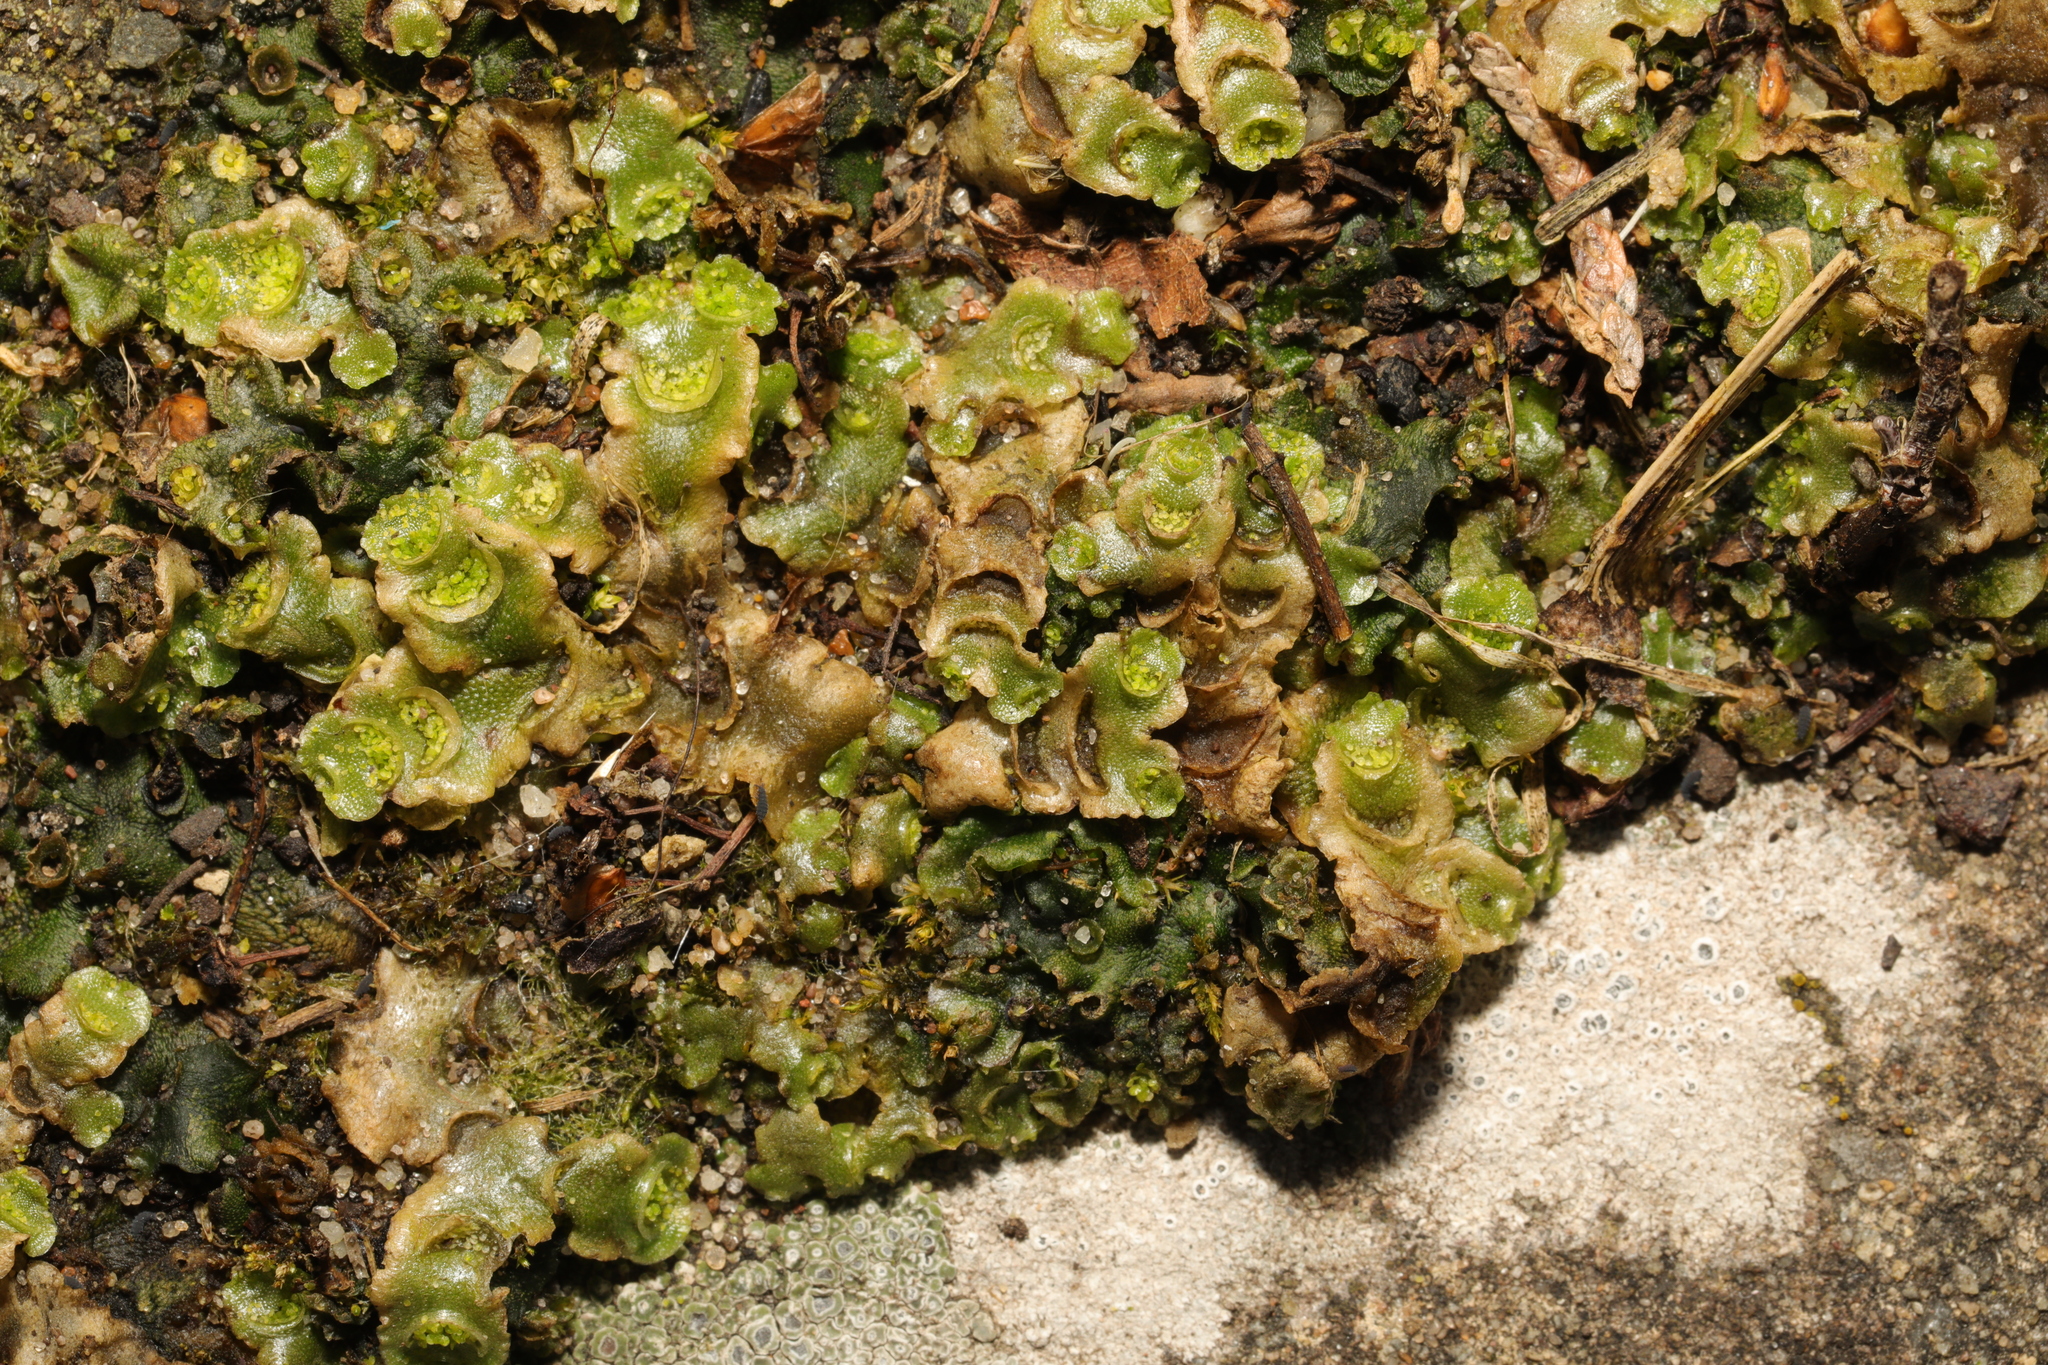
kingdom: Plantae
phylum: Marchantiophyta
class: Marchantiopsida
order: Lunulariales
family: Lunulariaceae
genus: Lunularia
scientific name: Lunularia cruciata
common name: Crescent-cup liverwort
